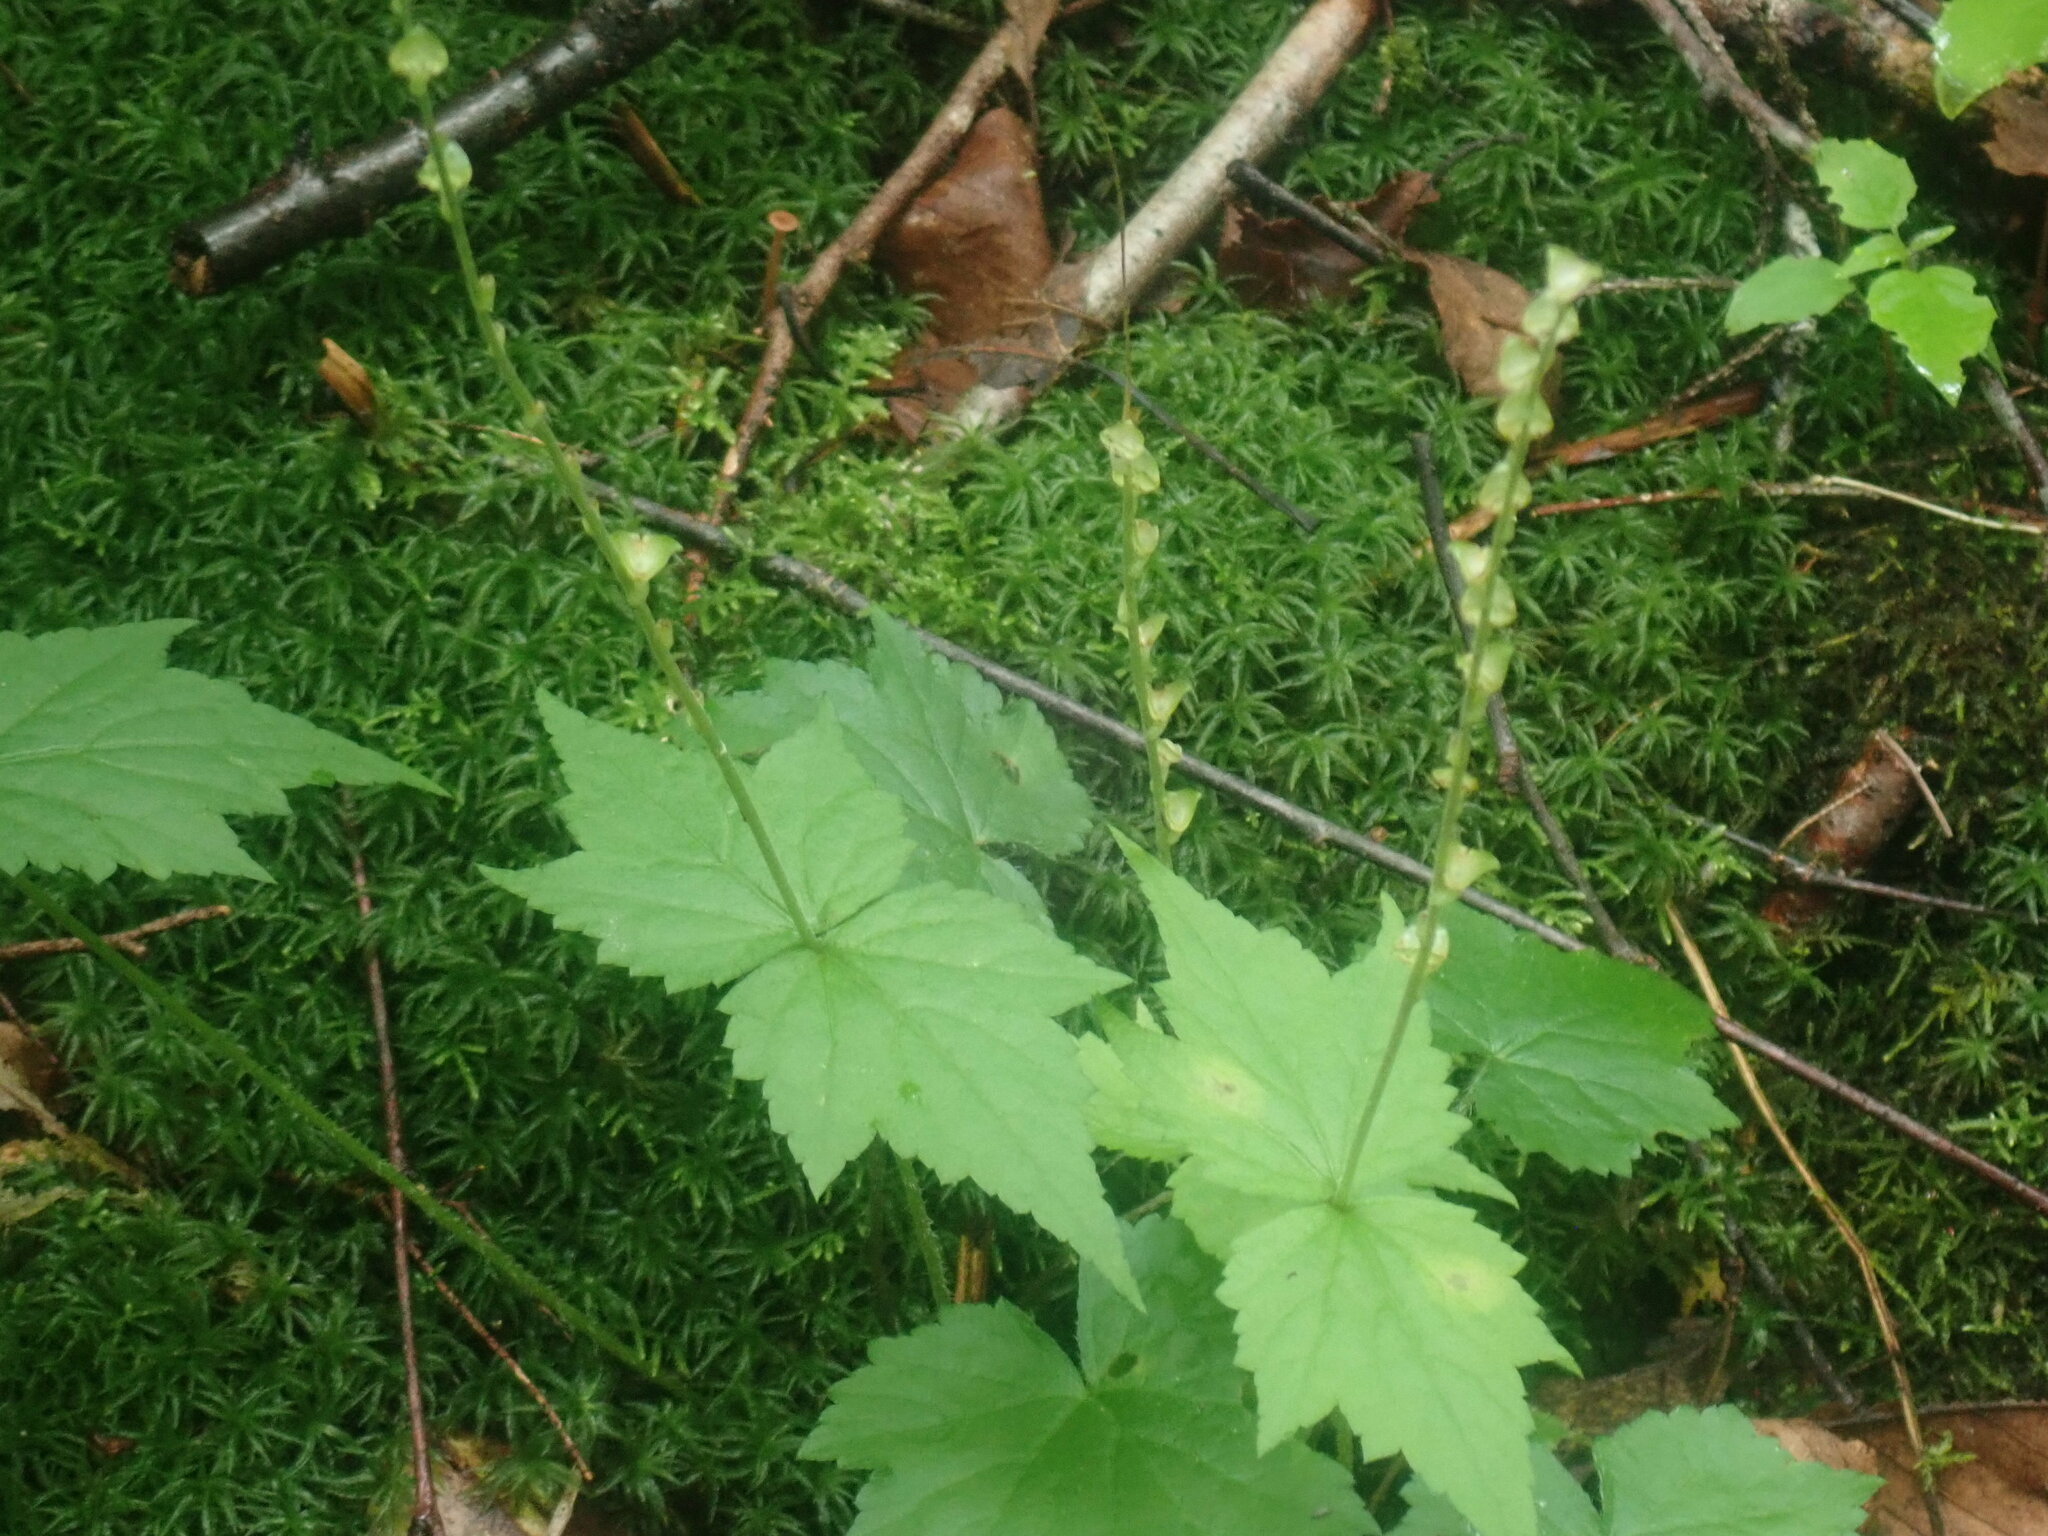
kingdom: Plantae
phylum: Tracheophyta
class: Magnoliopsida
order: Saxifragales
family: Saxifragaceae
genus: Mitella
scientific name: Mitella diphylla
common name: Coolwort
